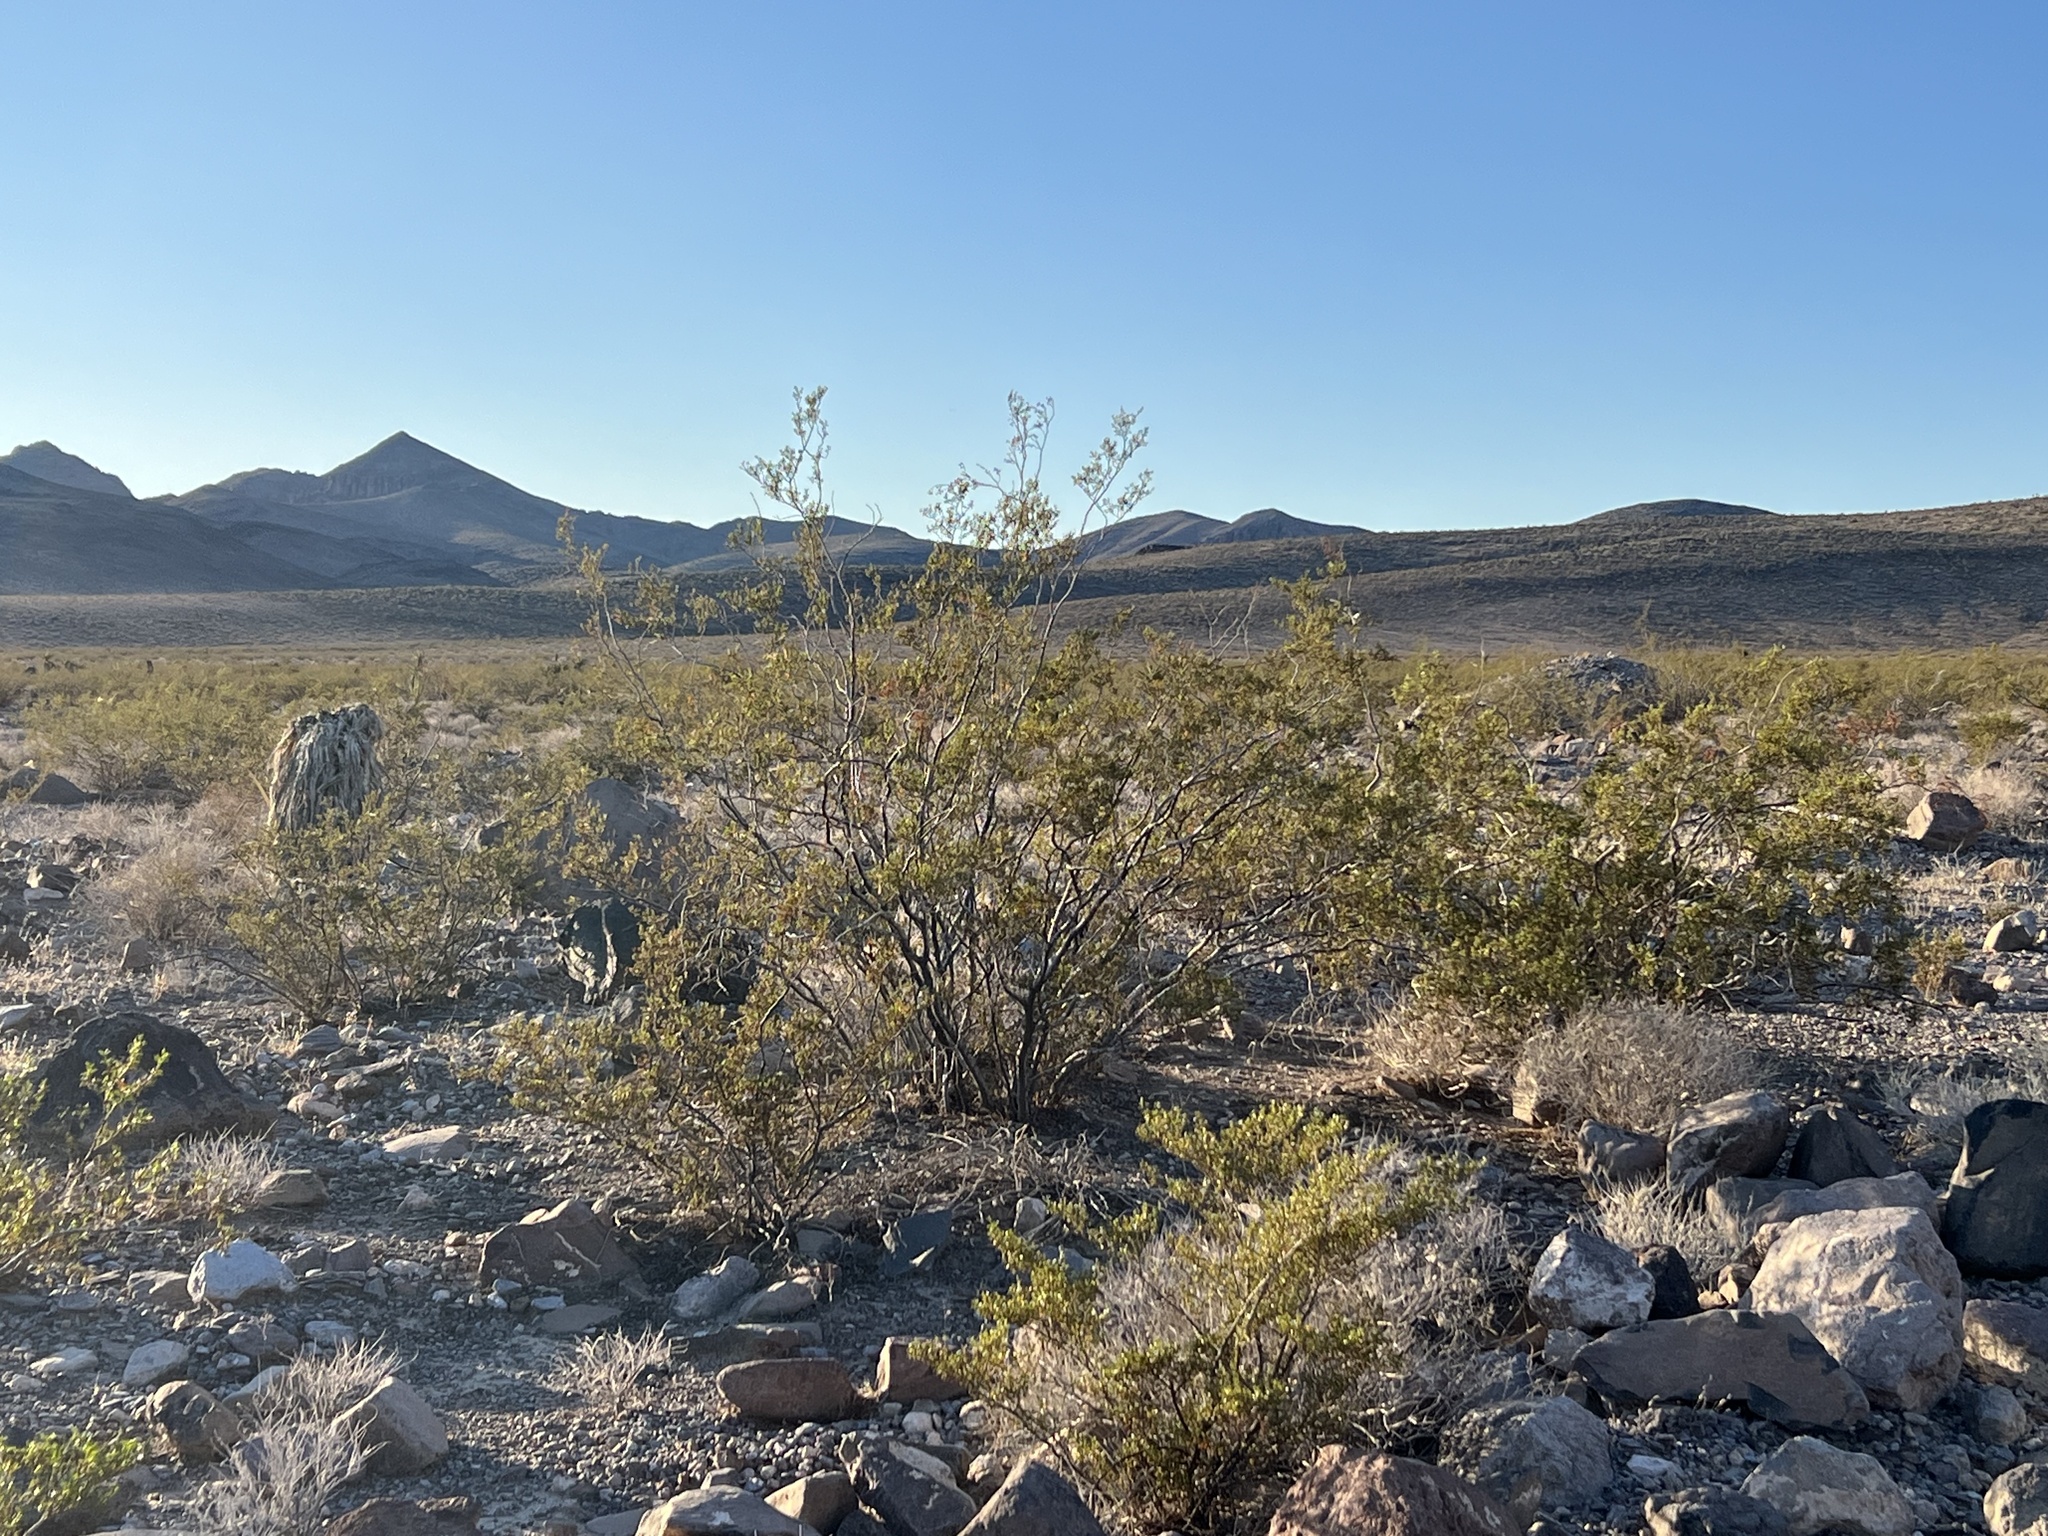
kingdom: Plantae
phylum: Tracheophyta
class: Magnoliopsida
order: Zygophyllales
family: Zygophyllaceae
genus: Larrea
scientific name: Larrea tridentata
